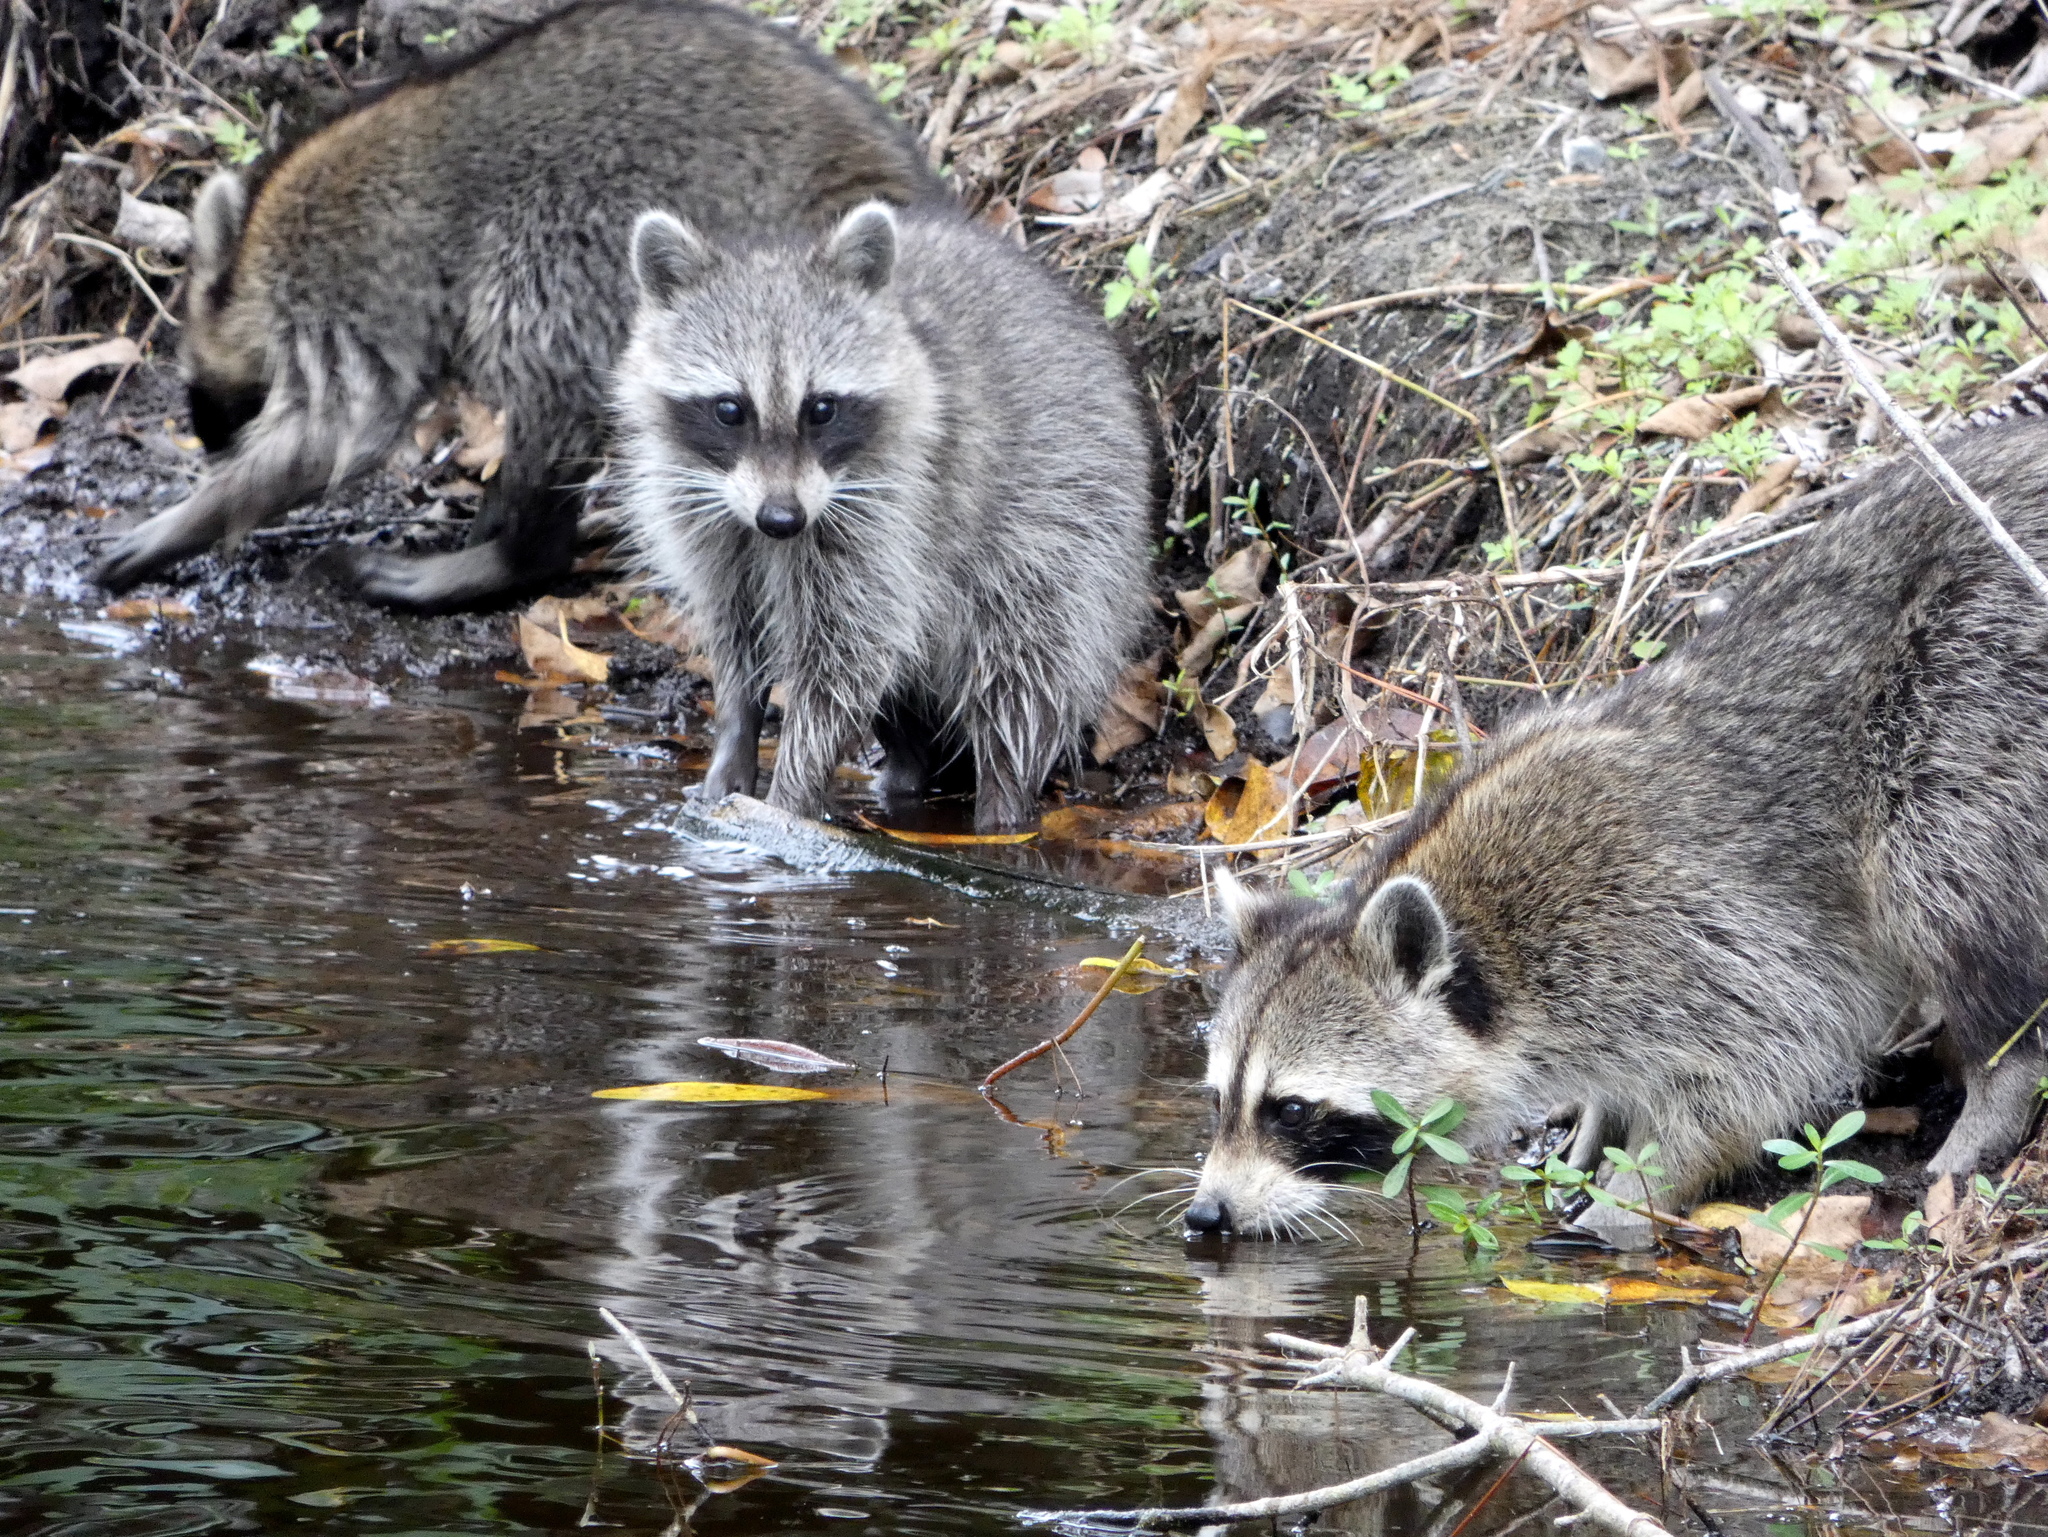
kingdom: Animalia
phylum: Chordata
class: Mammalia
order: Carnivora
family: Procyonidae
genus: Procyon
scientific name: Procyon lotor
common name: Raccoon
